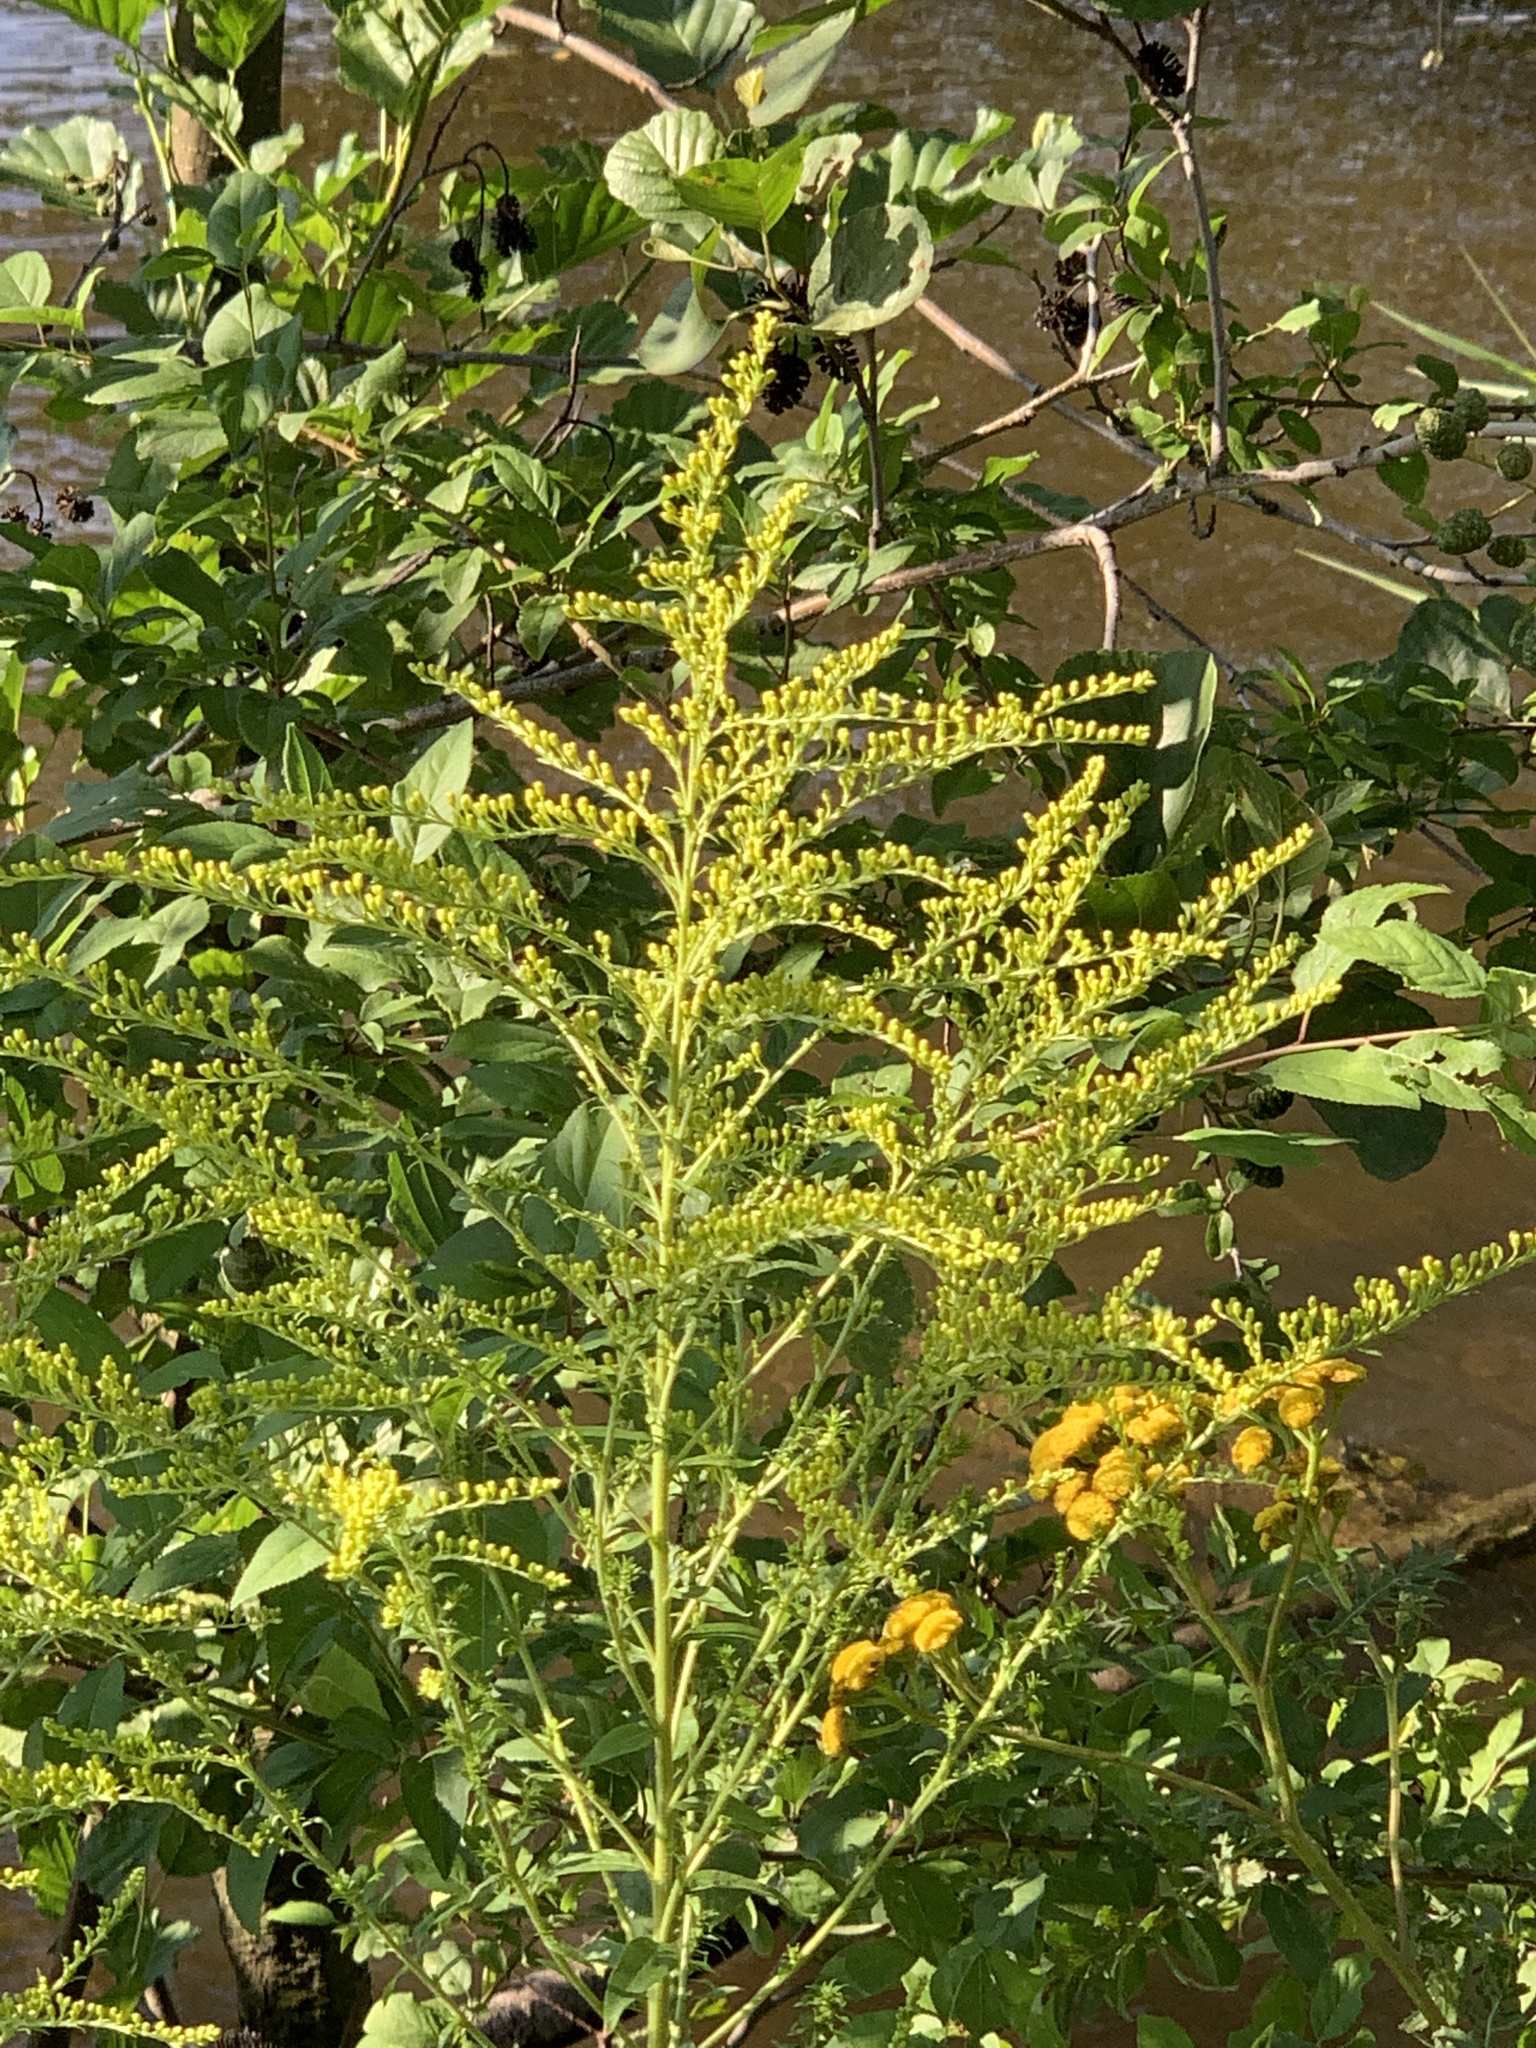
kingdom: Plantae
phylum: Tracheophyta
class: Magnoliopsida
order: Asterales
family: Asteraceae
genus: Solidago
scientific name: Solidago canadensis
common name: Canada goldenrod
